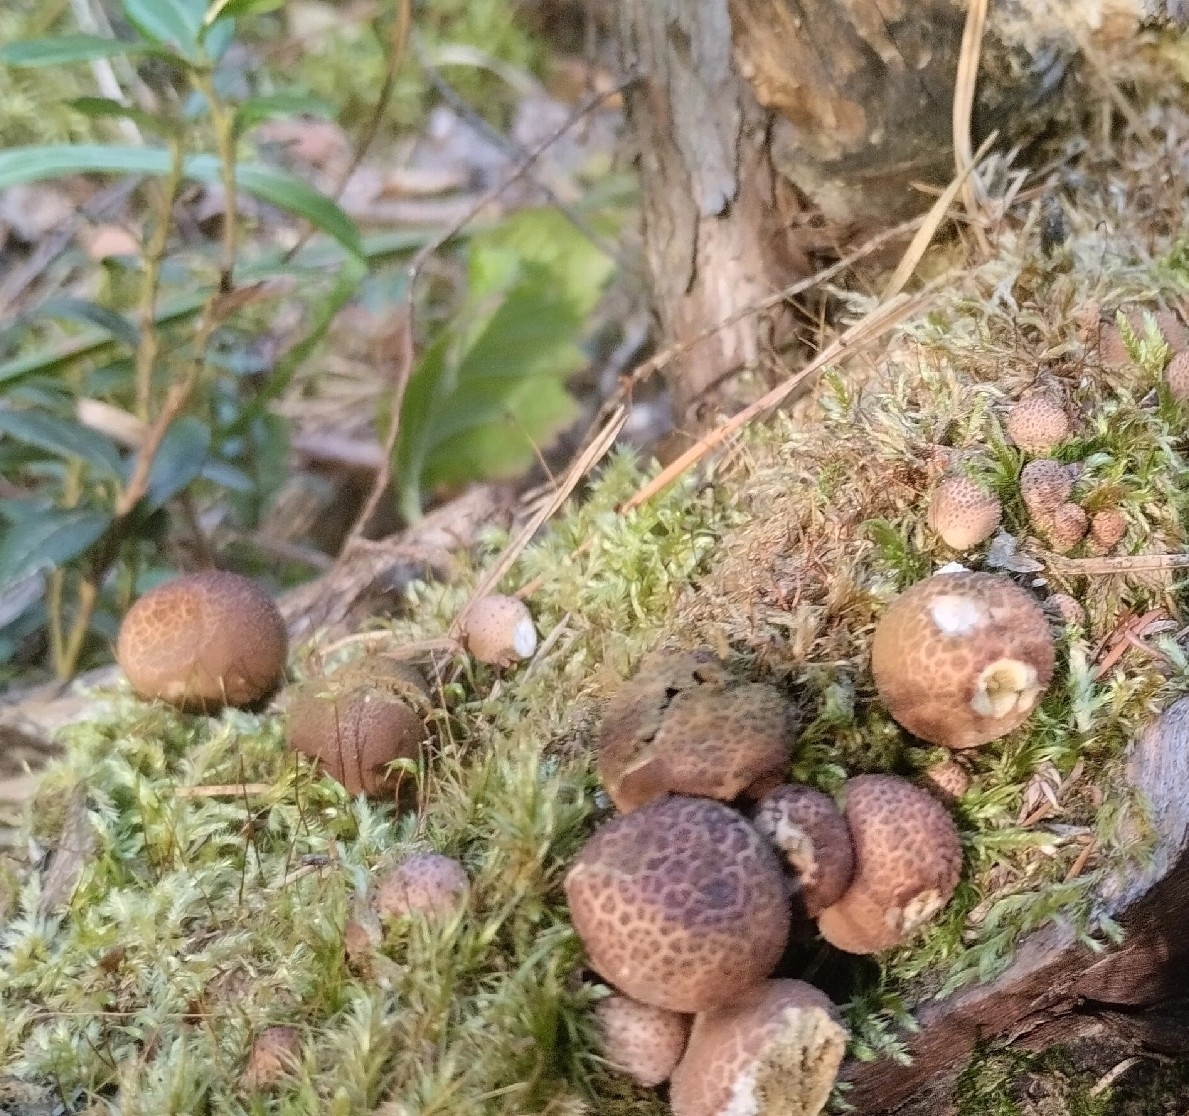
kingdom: Fungi
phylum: Basidiomycota
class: Agaricomycetes
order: Agaricales
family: Lycoperdaceae
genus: Apioperdon
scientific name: Apioperdon pyriforme
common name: Pear-shaped puffball
